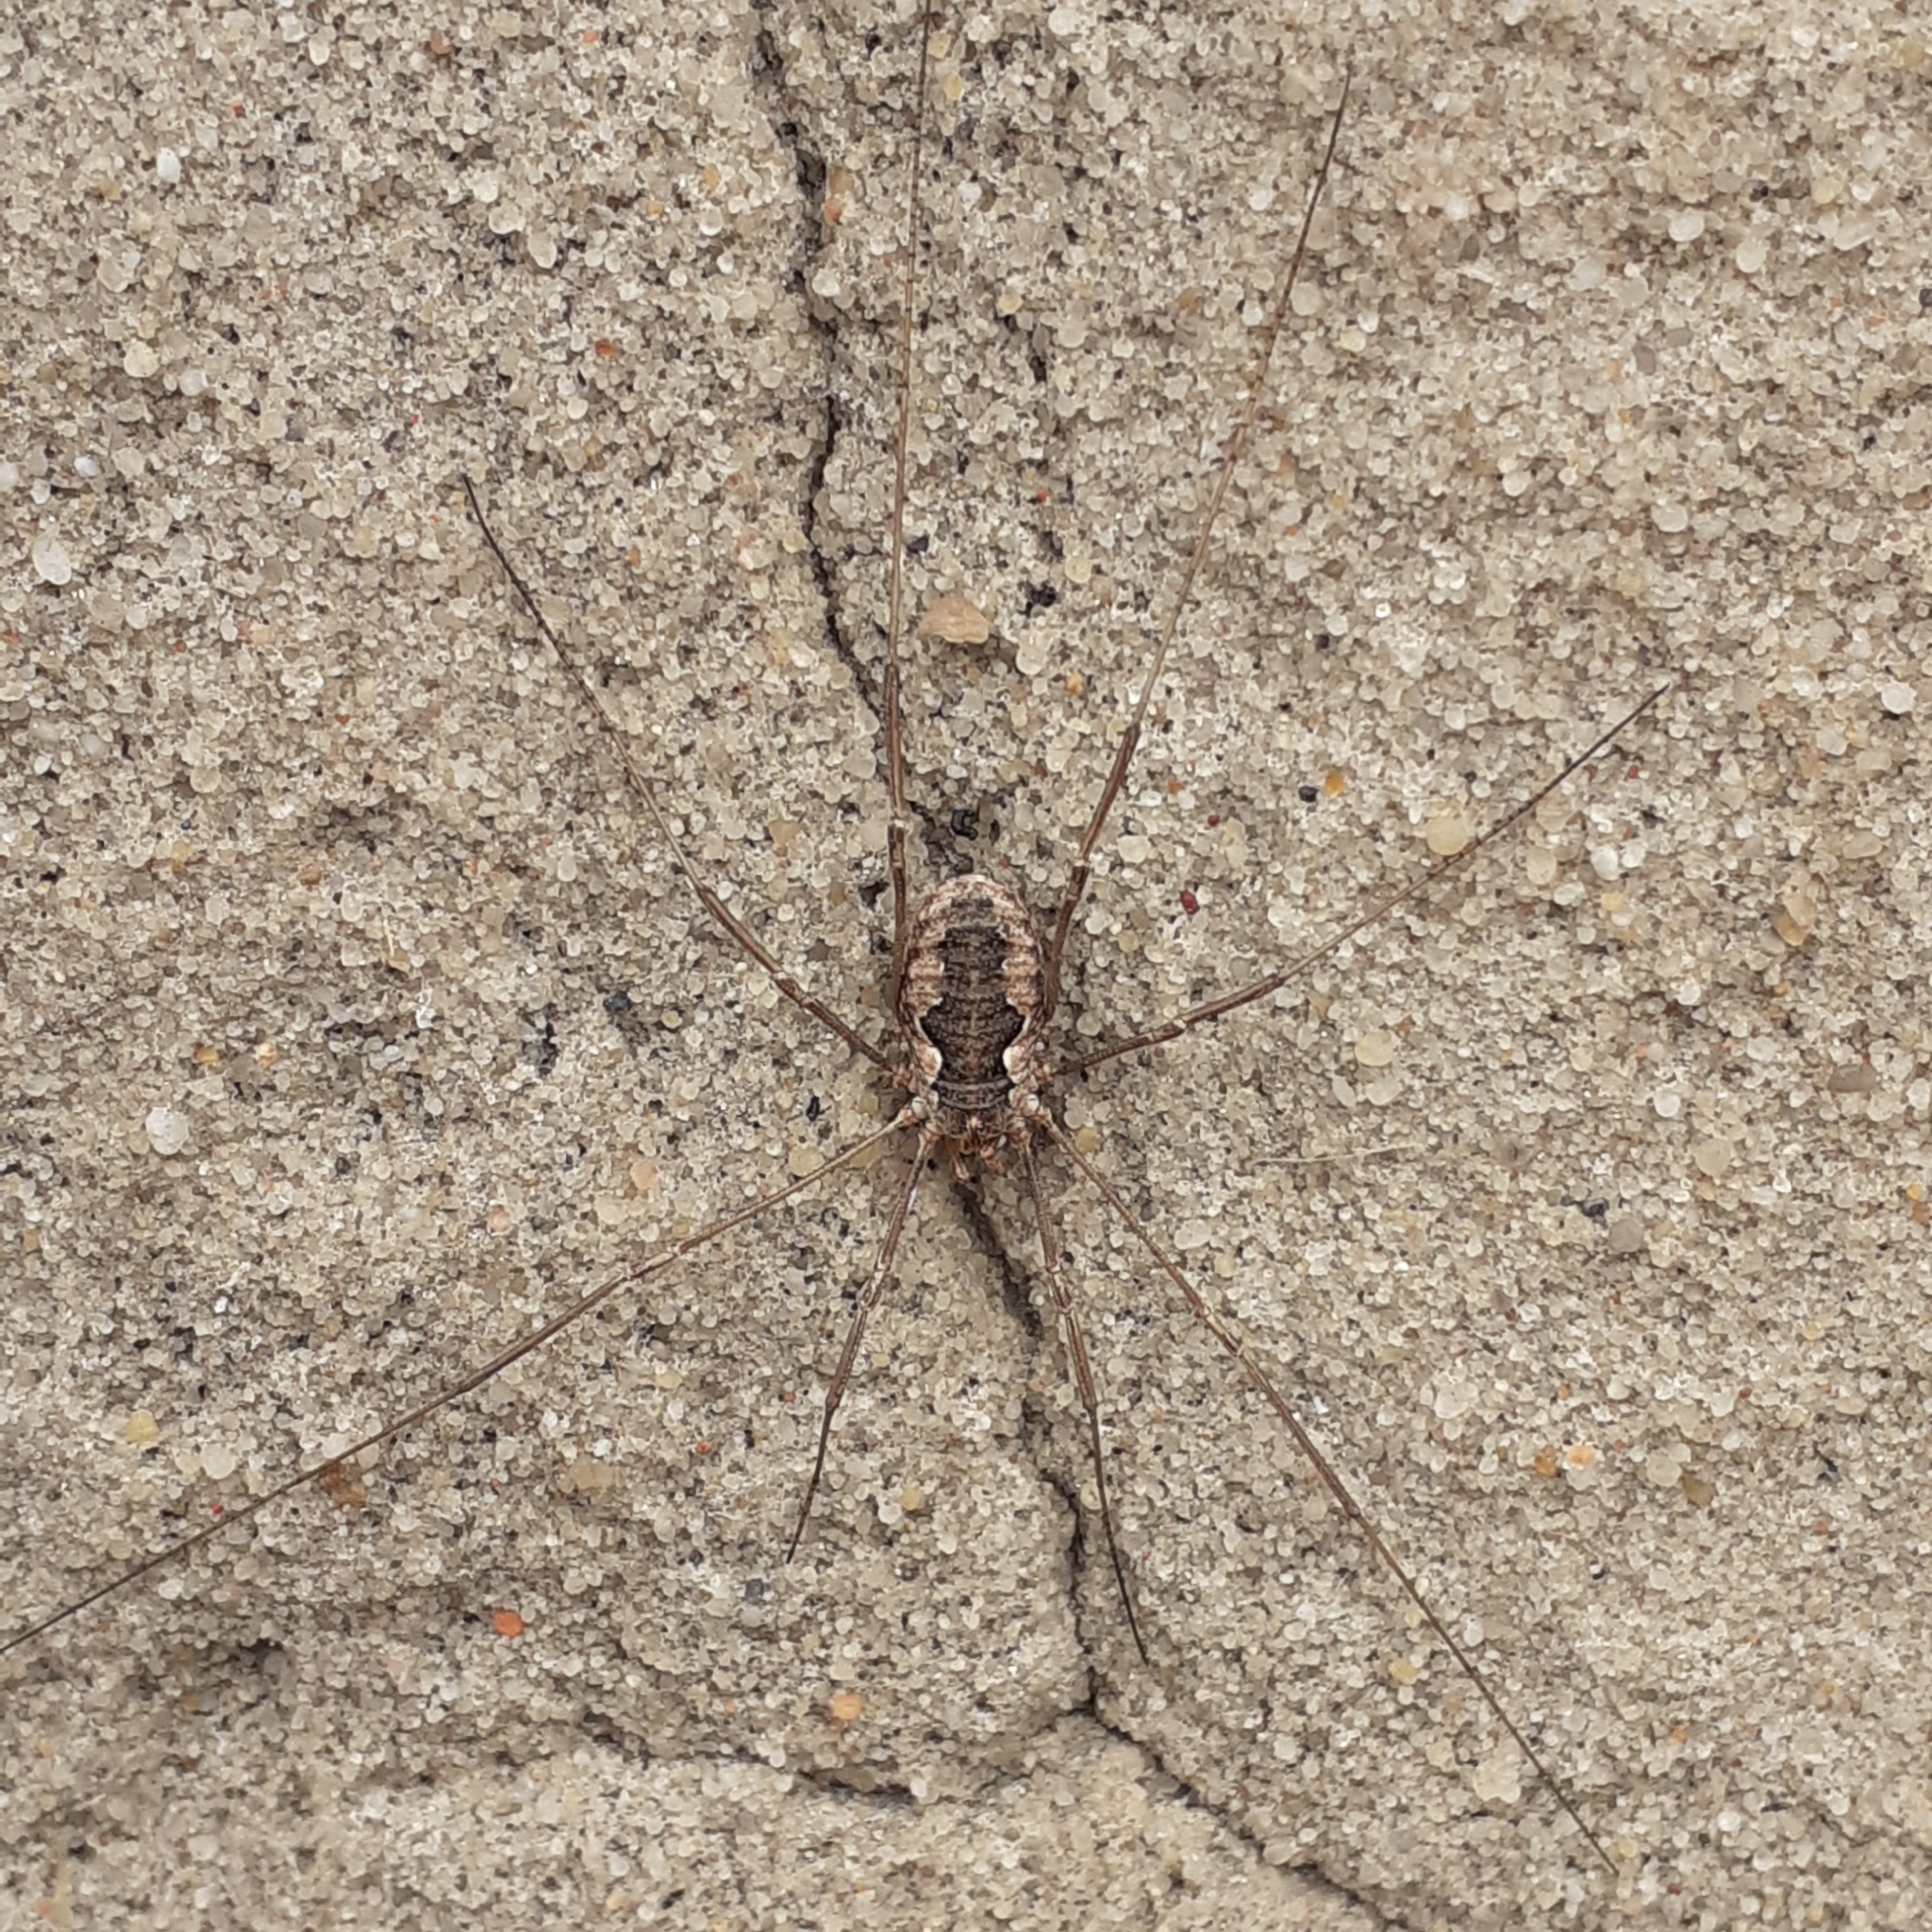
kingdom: Animalia
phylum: Arthropoda
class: Arachnida
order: Opiliones
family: Phalangiidae
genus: Phalangium
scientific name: Phalangium opilio
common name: Daddy longleg
